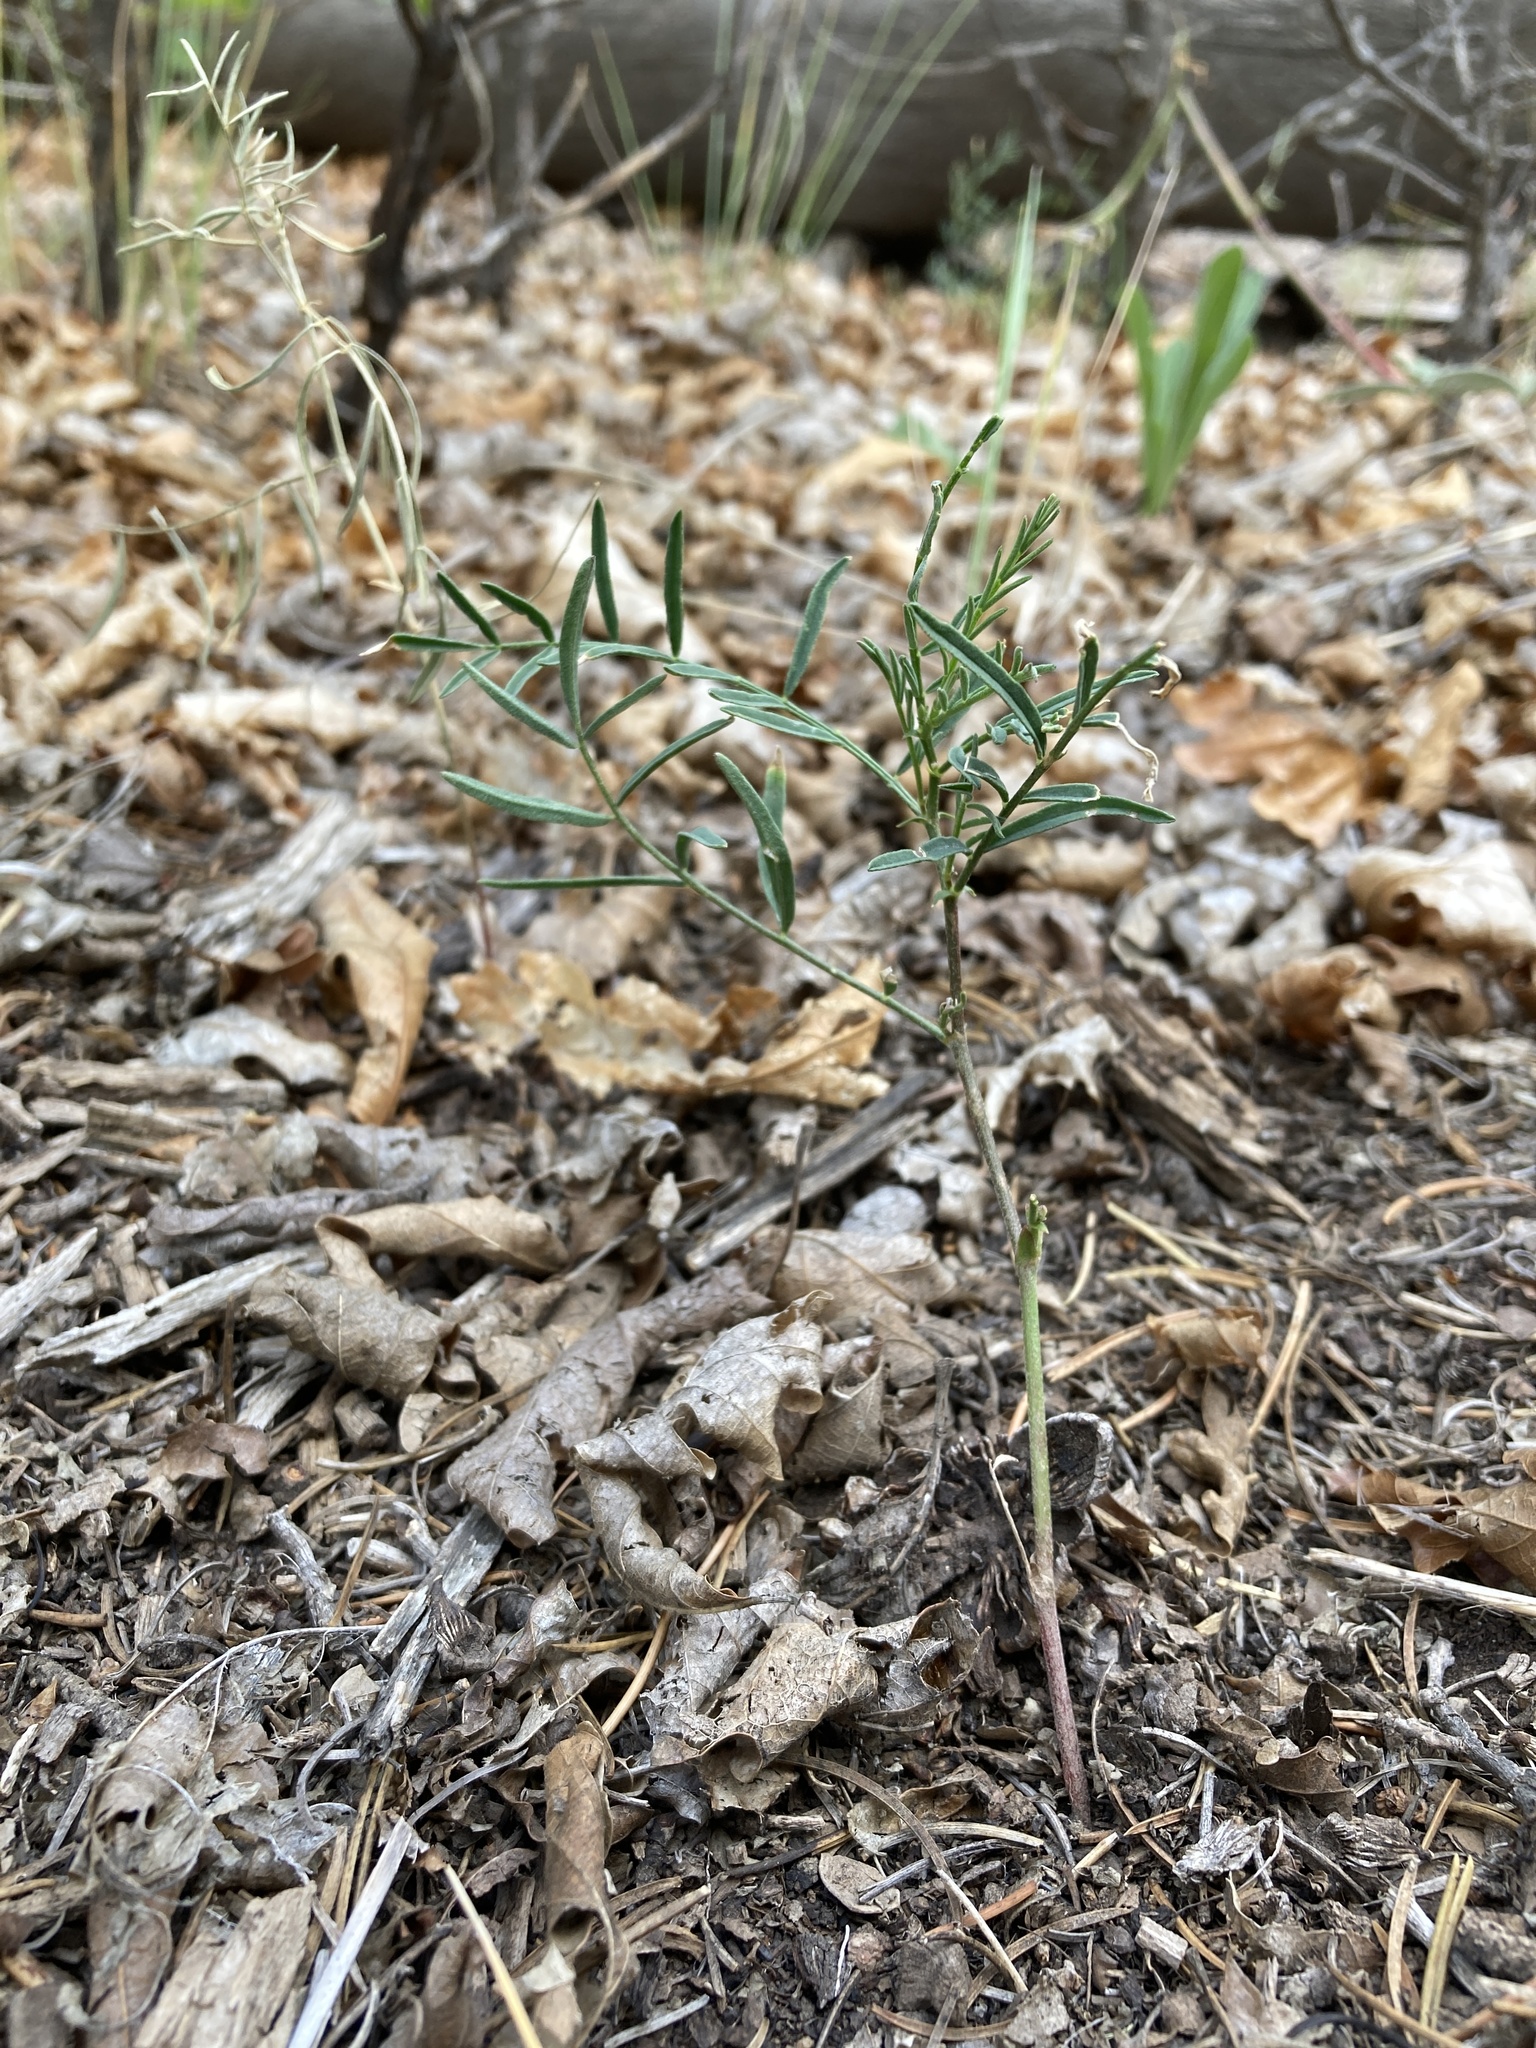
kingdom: Plantae
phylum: Tracheophyta
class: Magnoliopsida
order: Fabales
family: Fabaceae
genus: Astragalus
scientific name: Astragalus ripleyi
